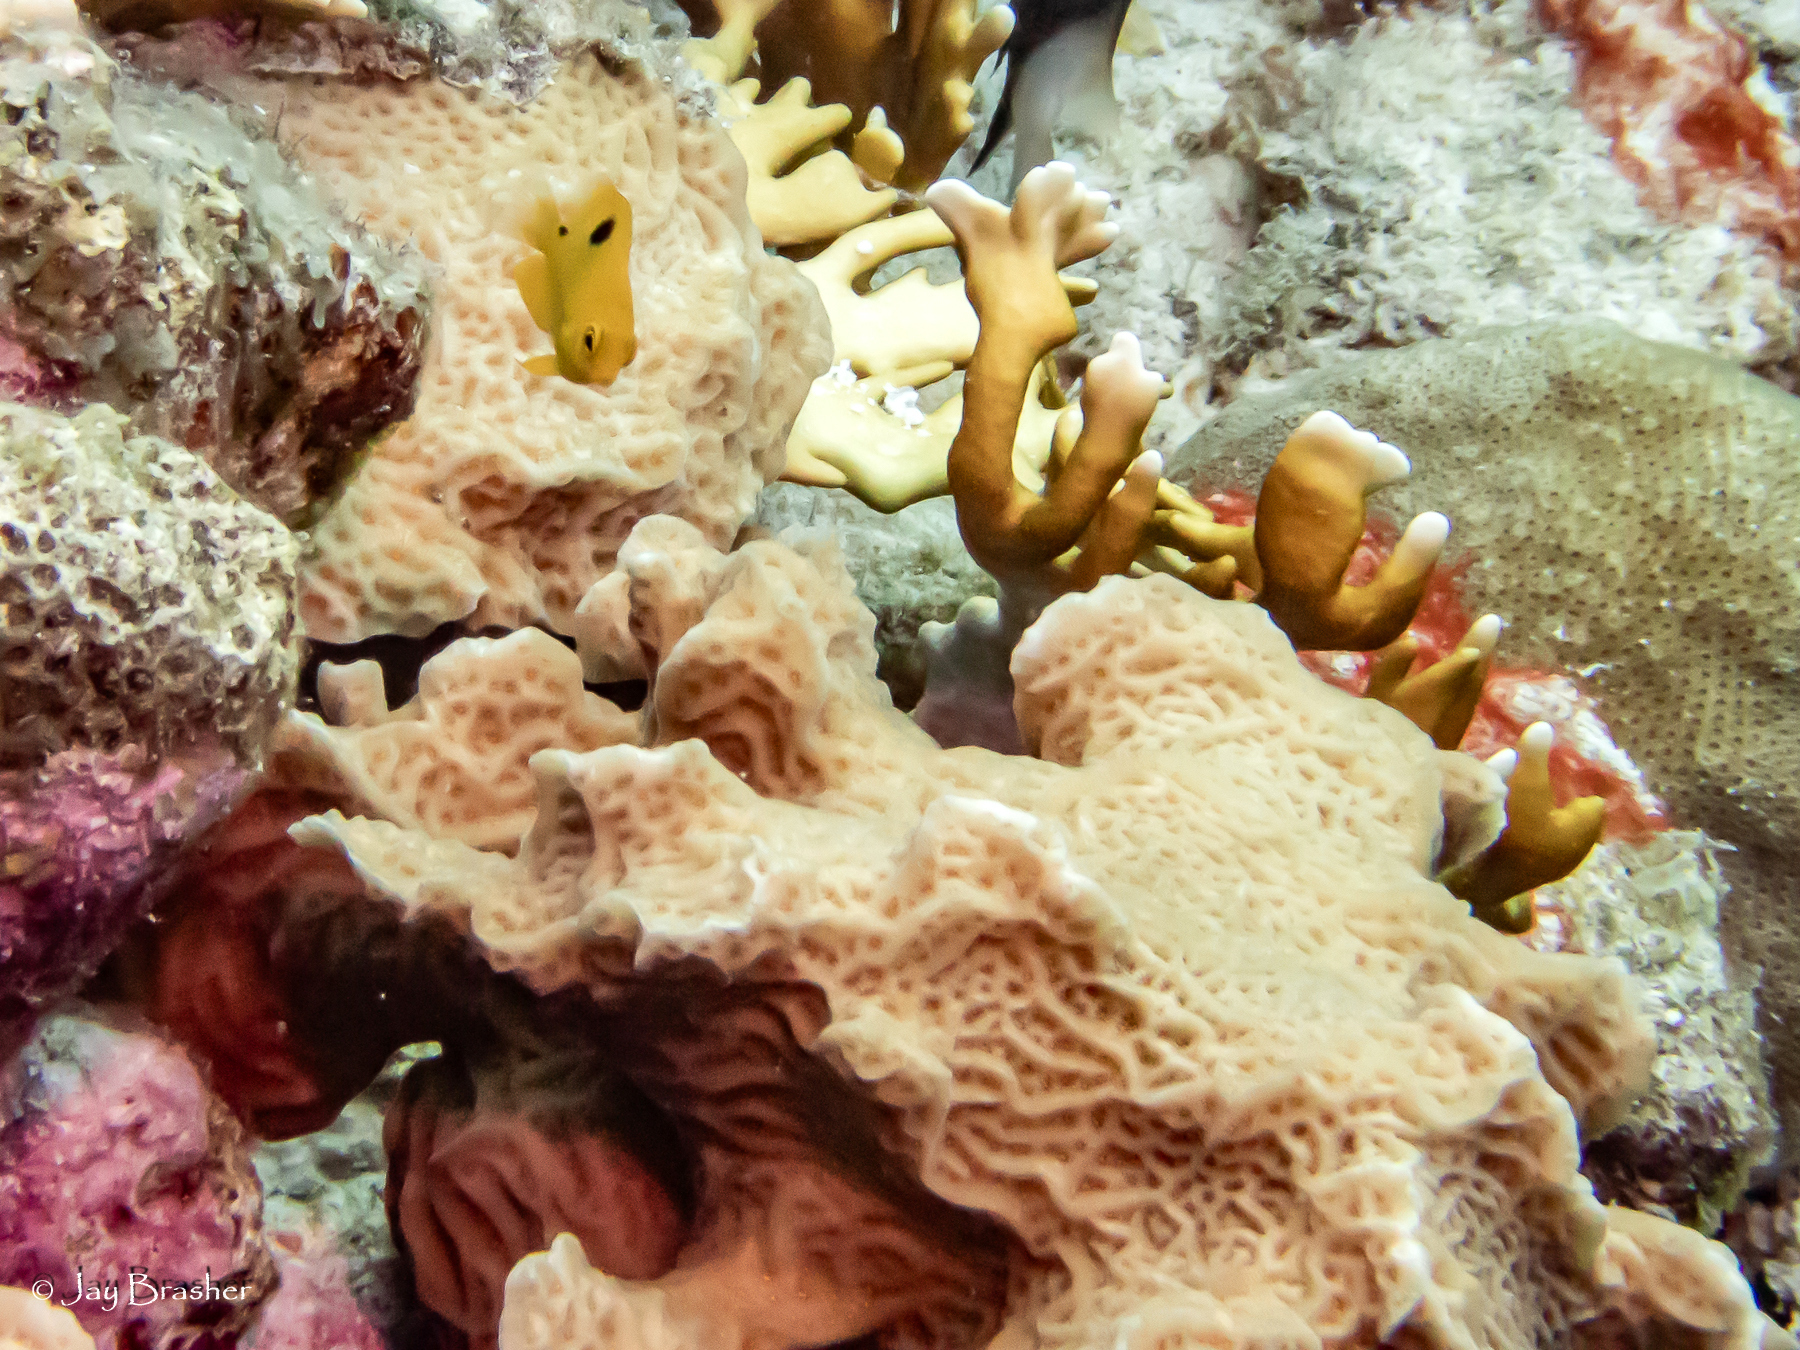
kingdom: Animalia
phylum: Chordata
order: Perciformes
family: Pomacentridae
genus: Stegastes
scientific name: Stegastes planifrons
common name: Threespot damselfish
